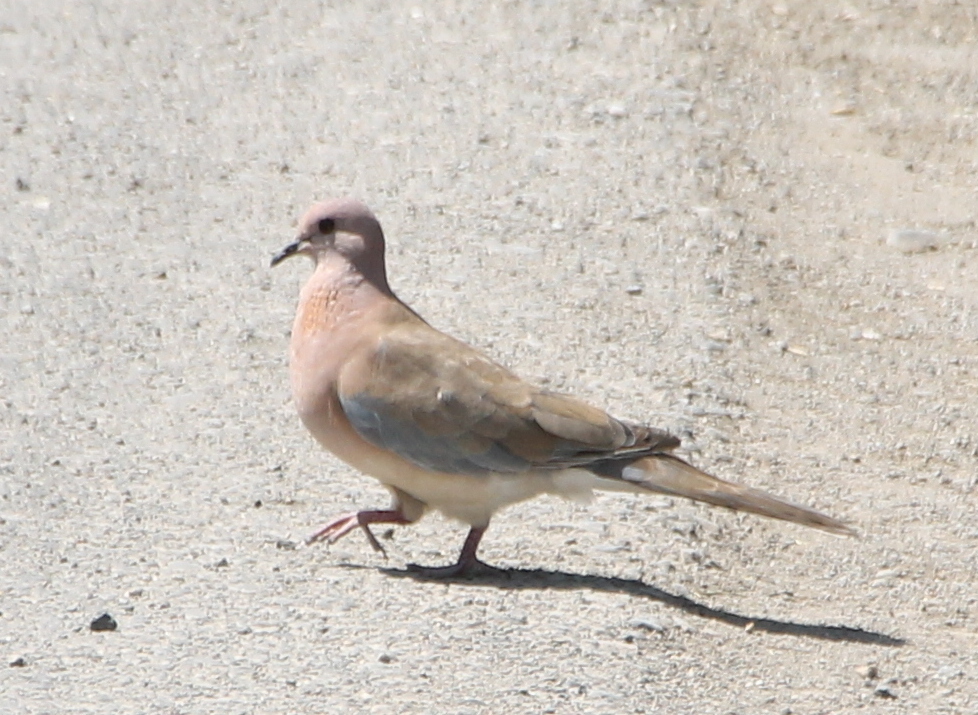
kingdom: Animalia
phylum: Chordata
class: Aves
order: Columbiformes
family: Columbidae
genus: Spilopelia
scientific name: Spilopelia senegalensis
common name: Laughing dove
